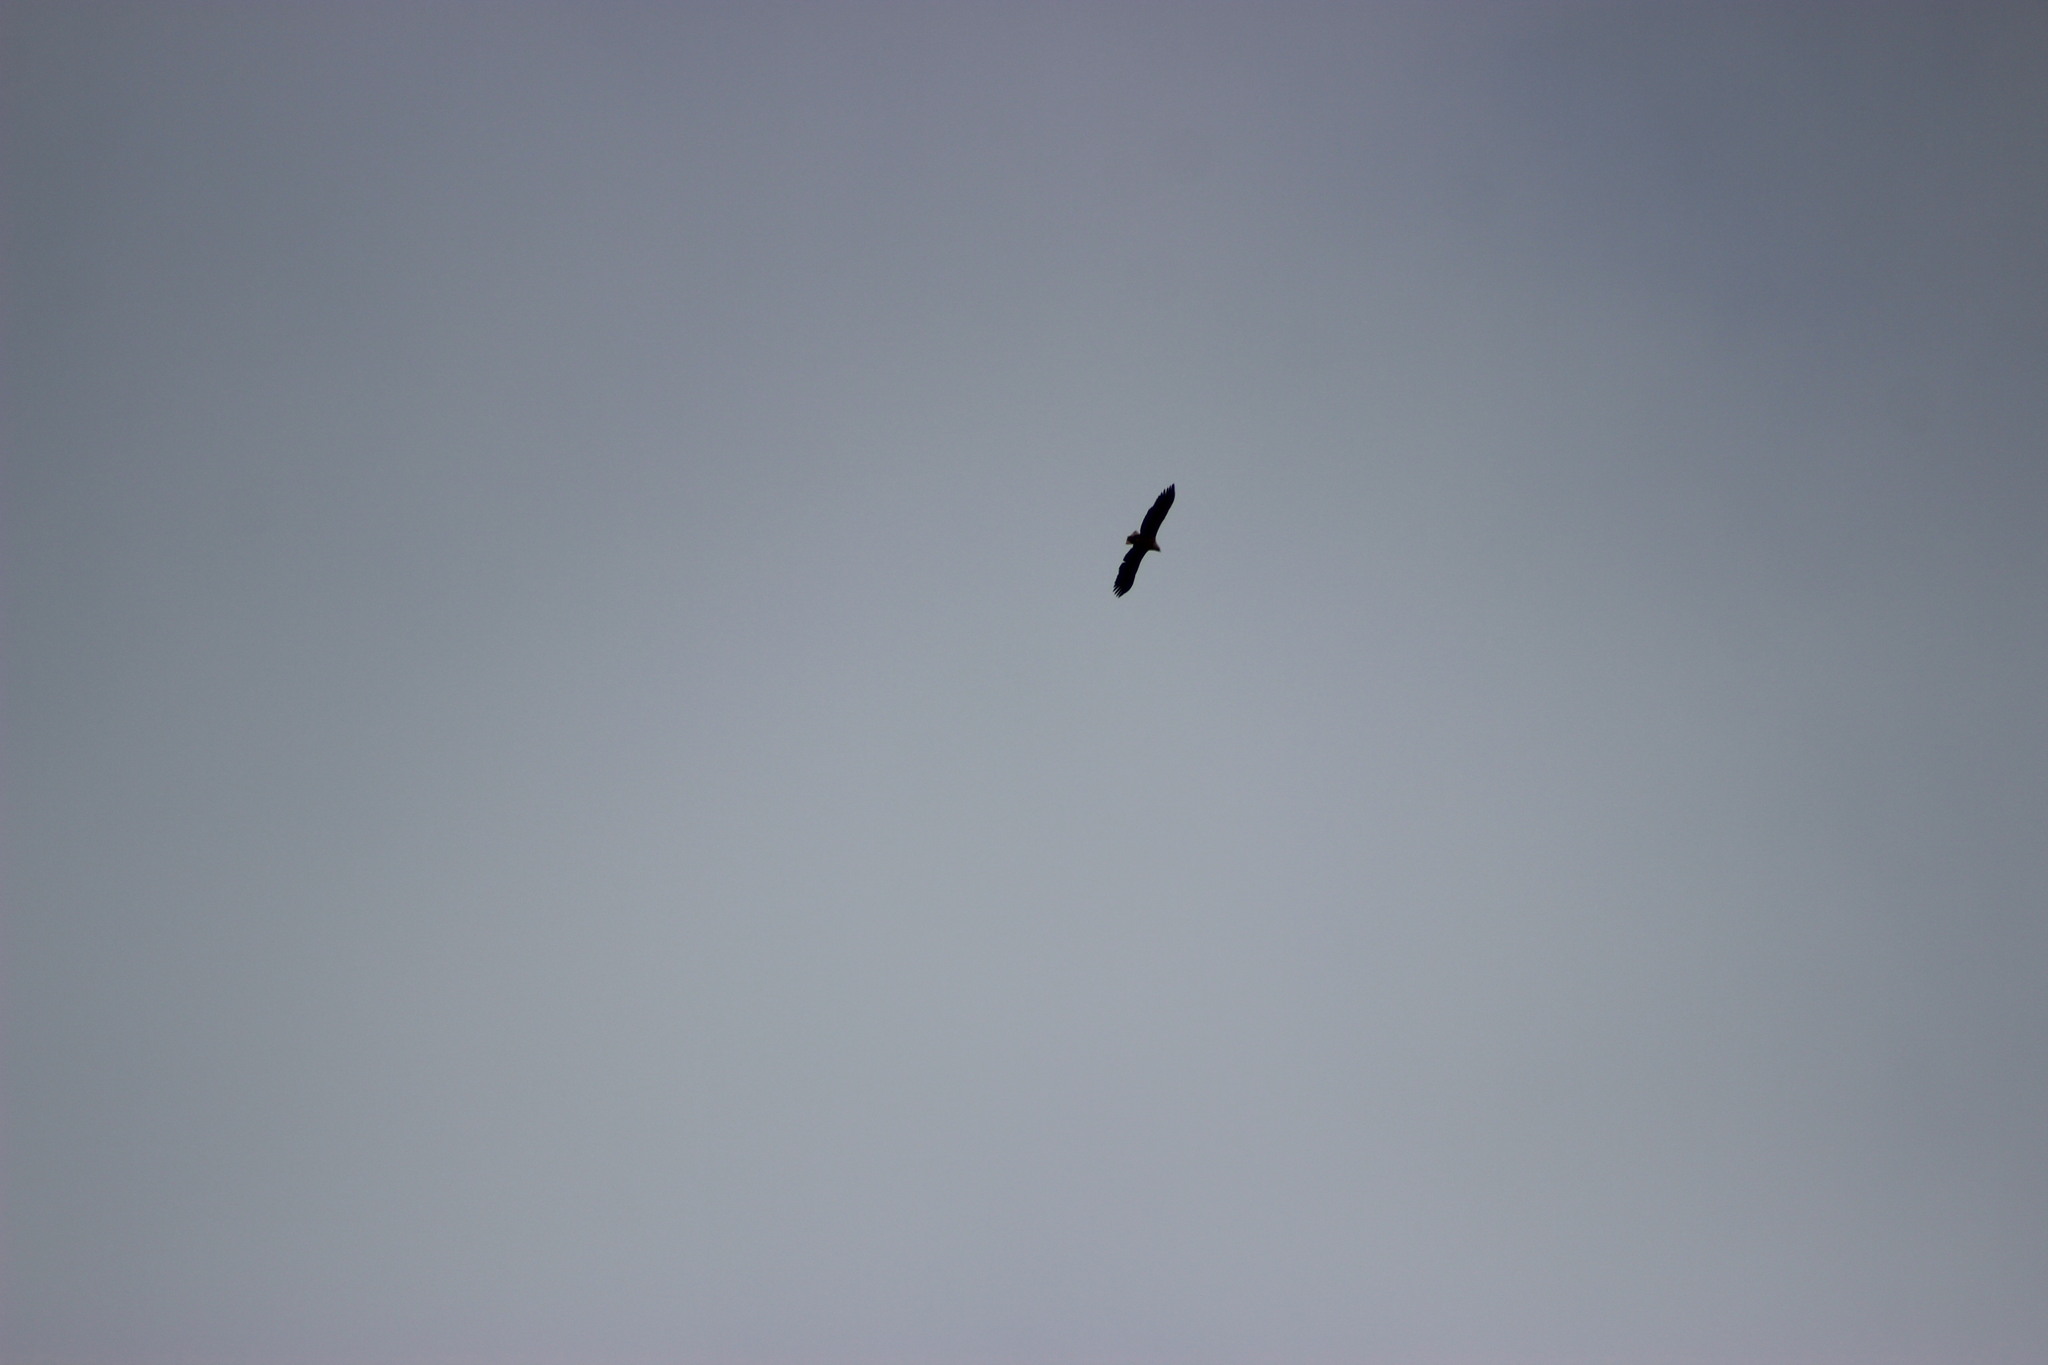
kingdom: Animalia
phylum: Chordata
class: Aves
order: Accipitriformes
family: Accipitridae
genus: Haliaeetus
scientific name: Haliaeetus albicilla
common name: White-tailed eagle
